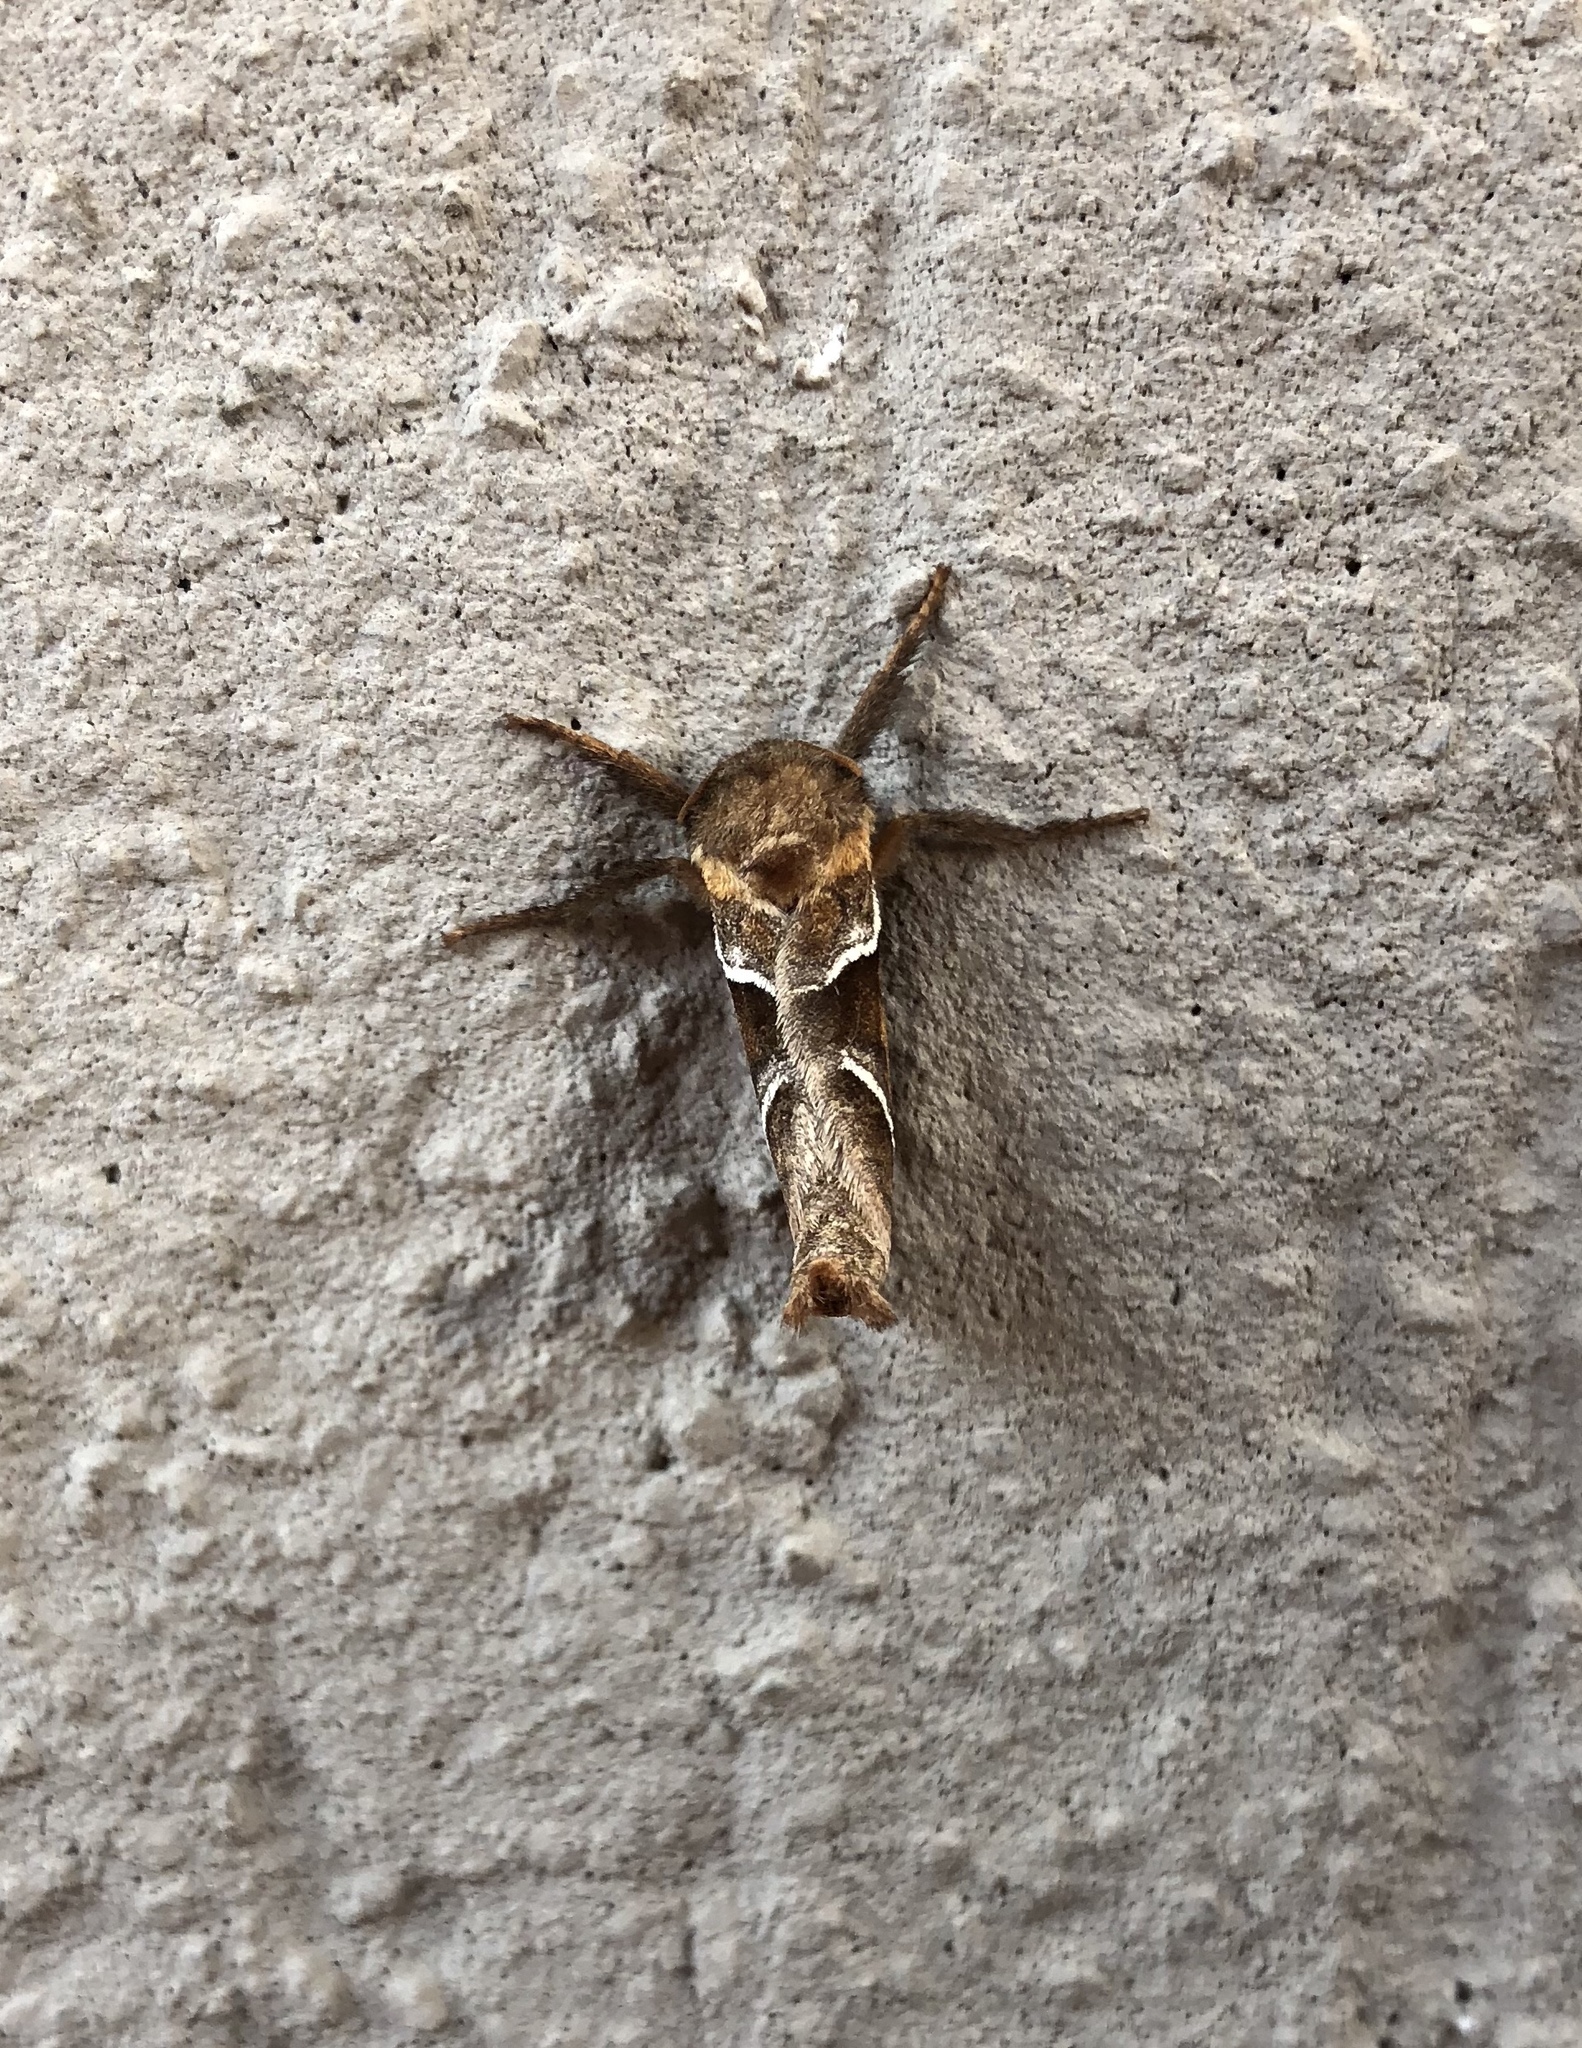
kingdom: Animalia
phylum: Arthropoda
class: Insecta
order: Lepidoptera
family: Hepialidae
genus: Triodia
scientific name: Triodia sylvina
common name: Orange swift
